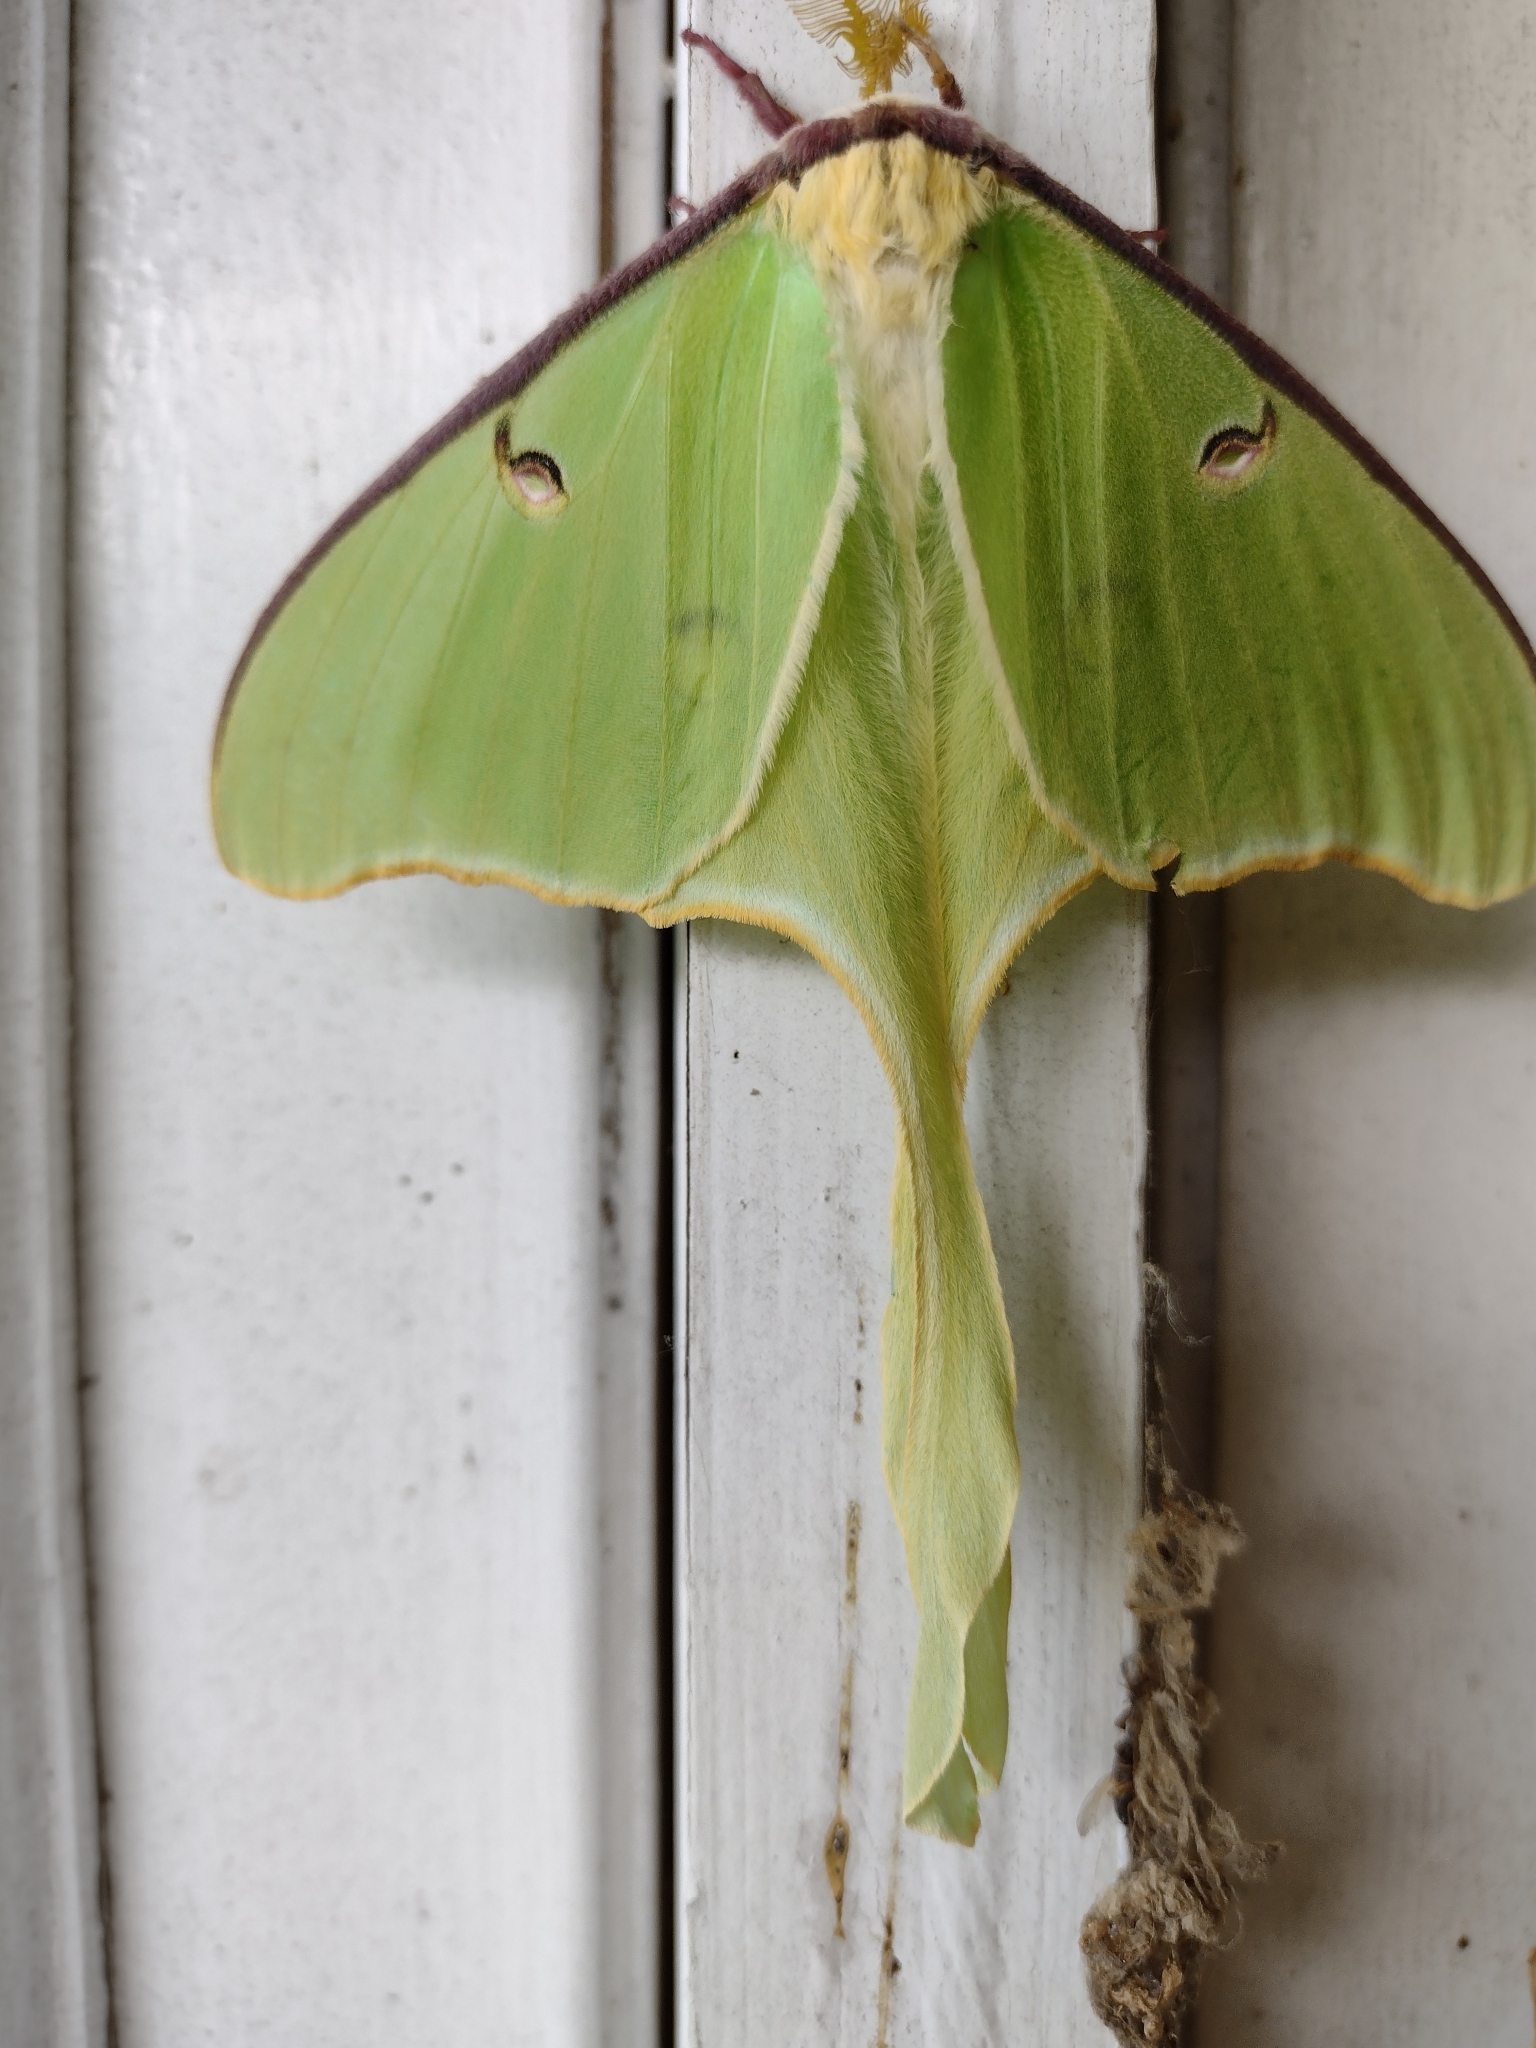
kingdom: Animalia
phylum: Arthropoda
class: Insecta
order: Lepidoptera
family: Saturniidae
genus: Actias
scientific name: Actias luna
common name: Luna moth
